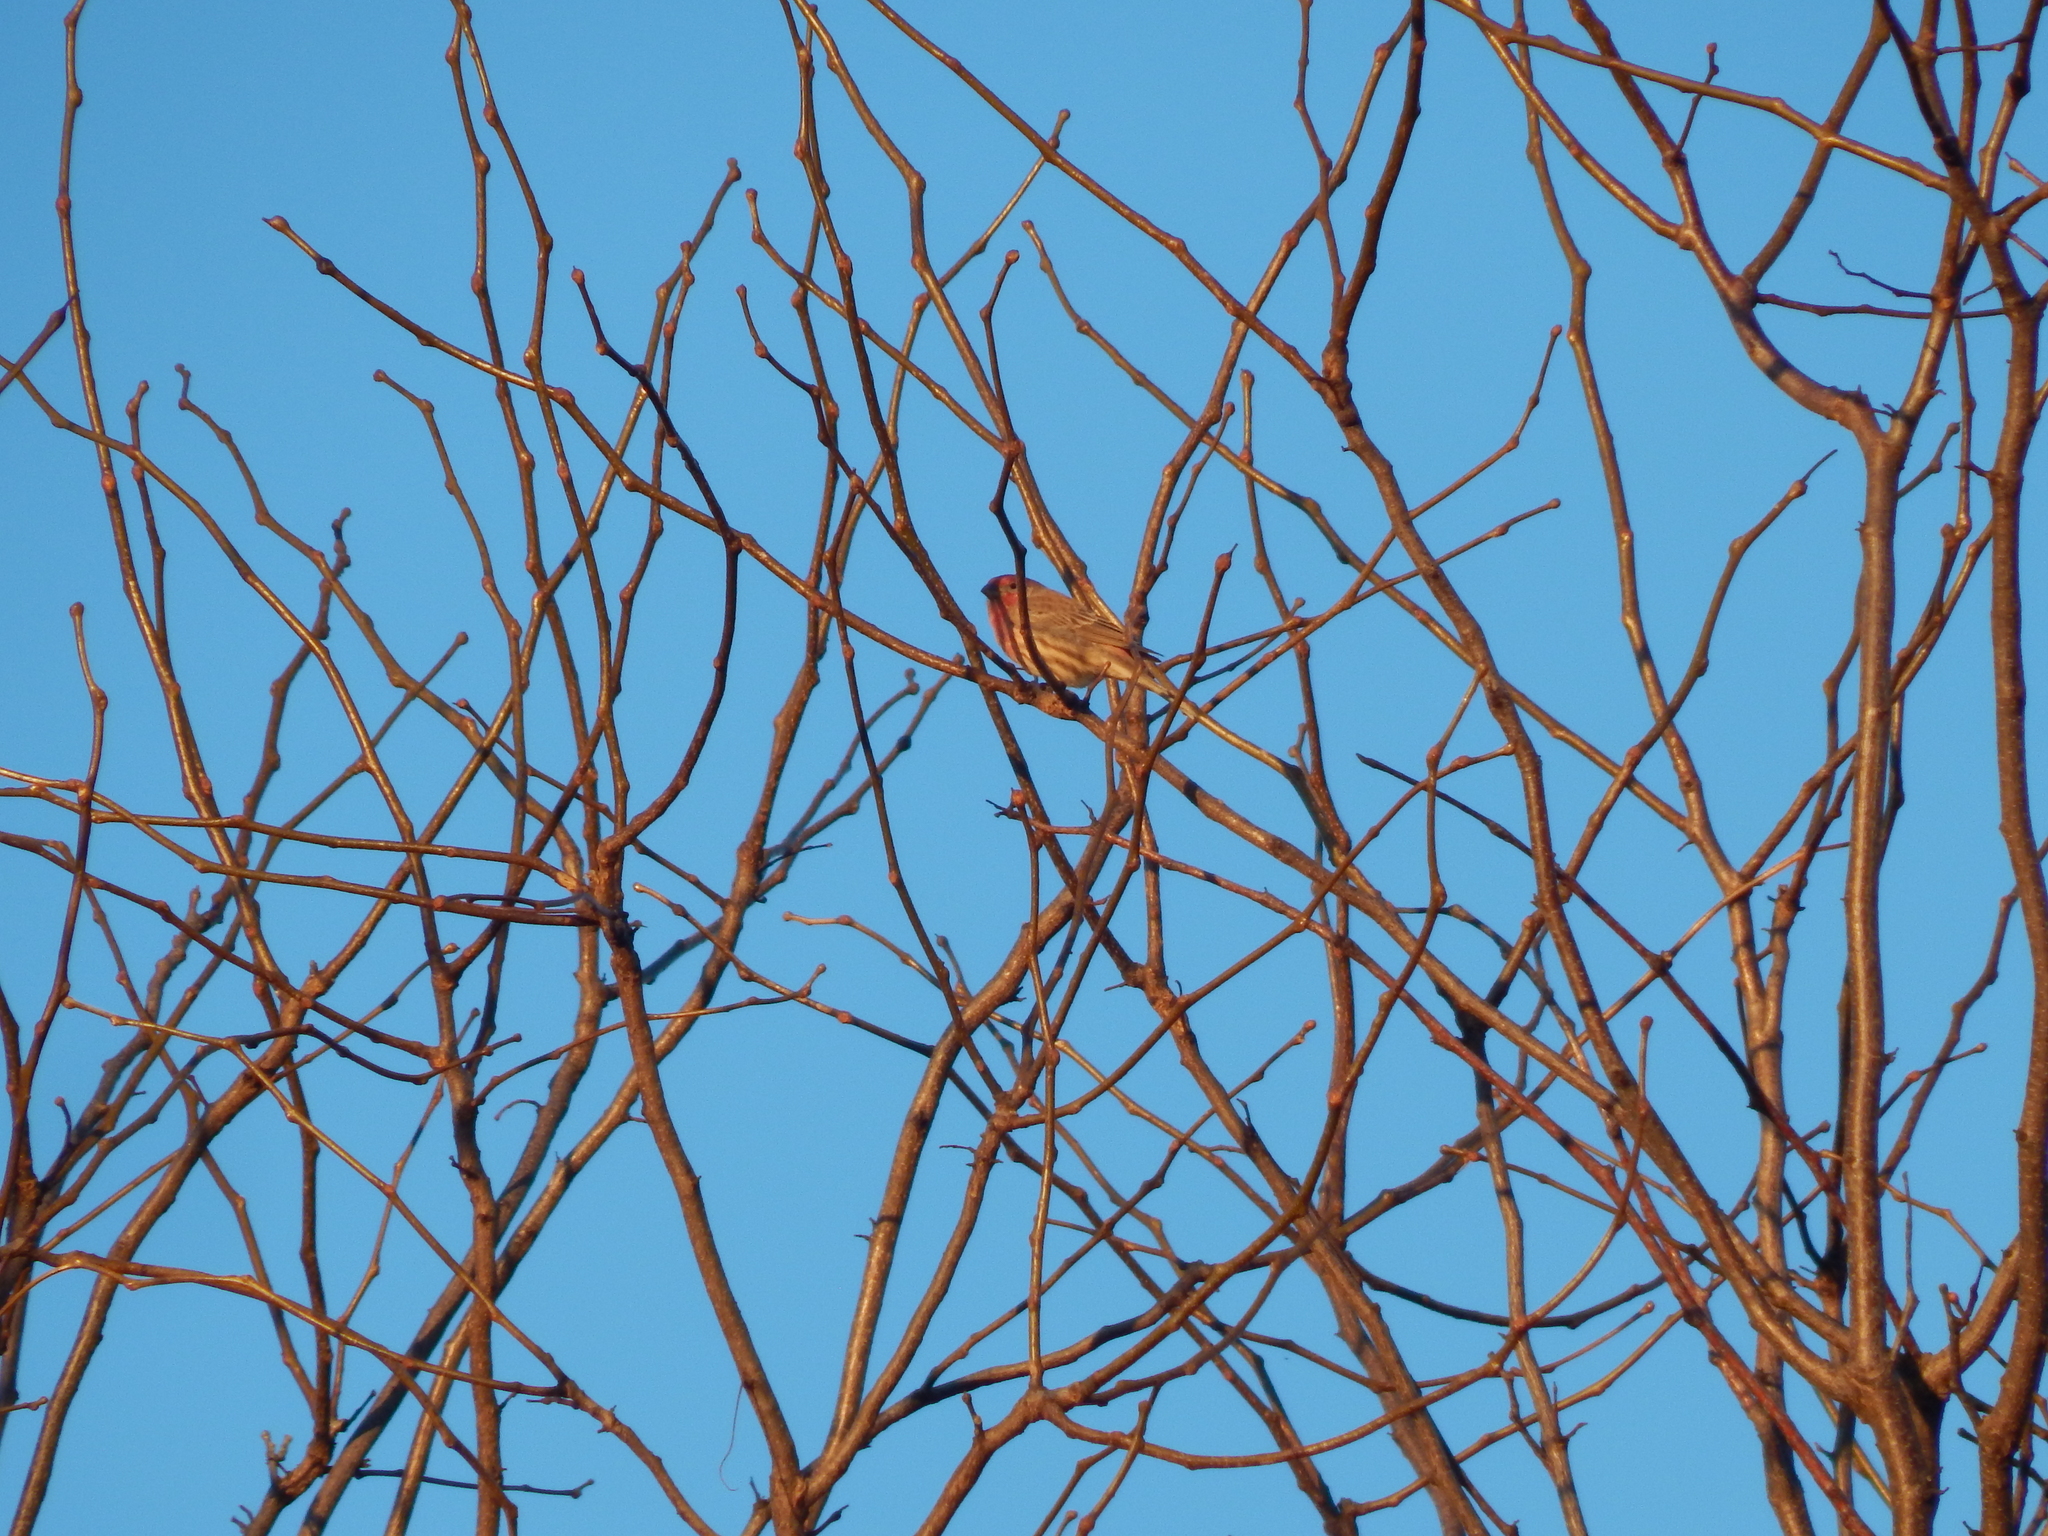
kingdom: Animalia
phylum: Chordata
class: Aves
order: Passeriformes
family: Fringillidae
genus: Haemorhous
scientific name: Haemorhous mexicanus
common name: House finch
